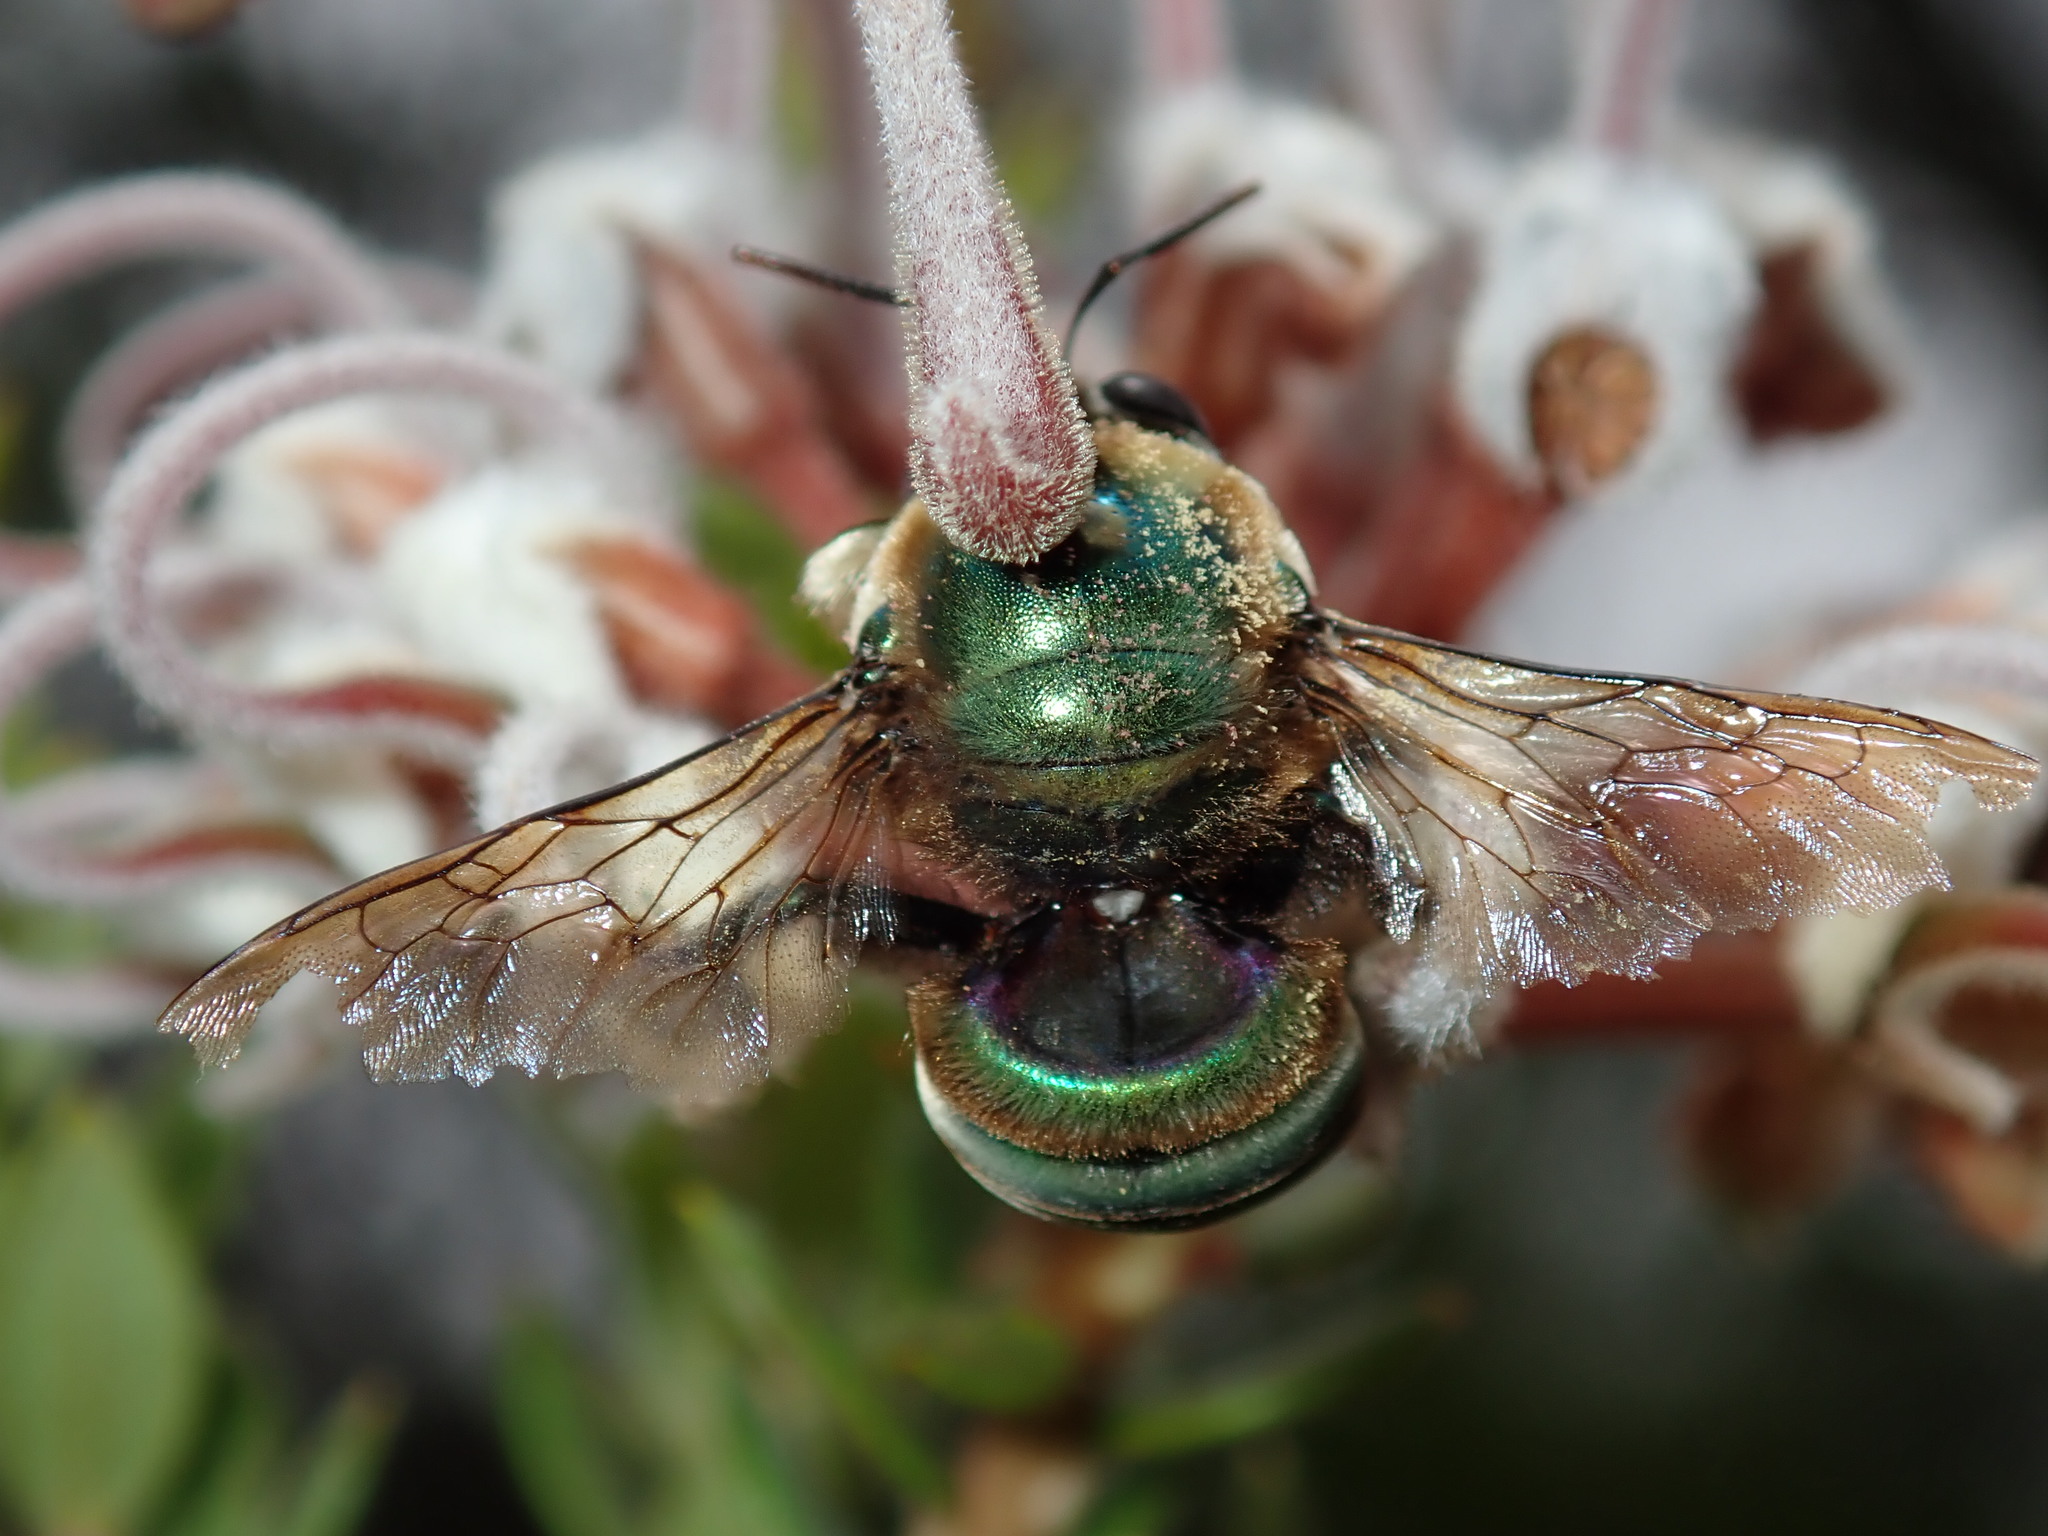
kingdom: Animalia
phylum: Arthropoda
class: Insecta
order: Hymenoptera
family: Apidae
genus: Xylocopa
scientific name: Xylocopa bombylans
